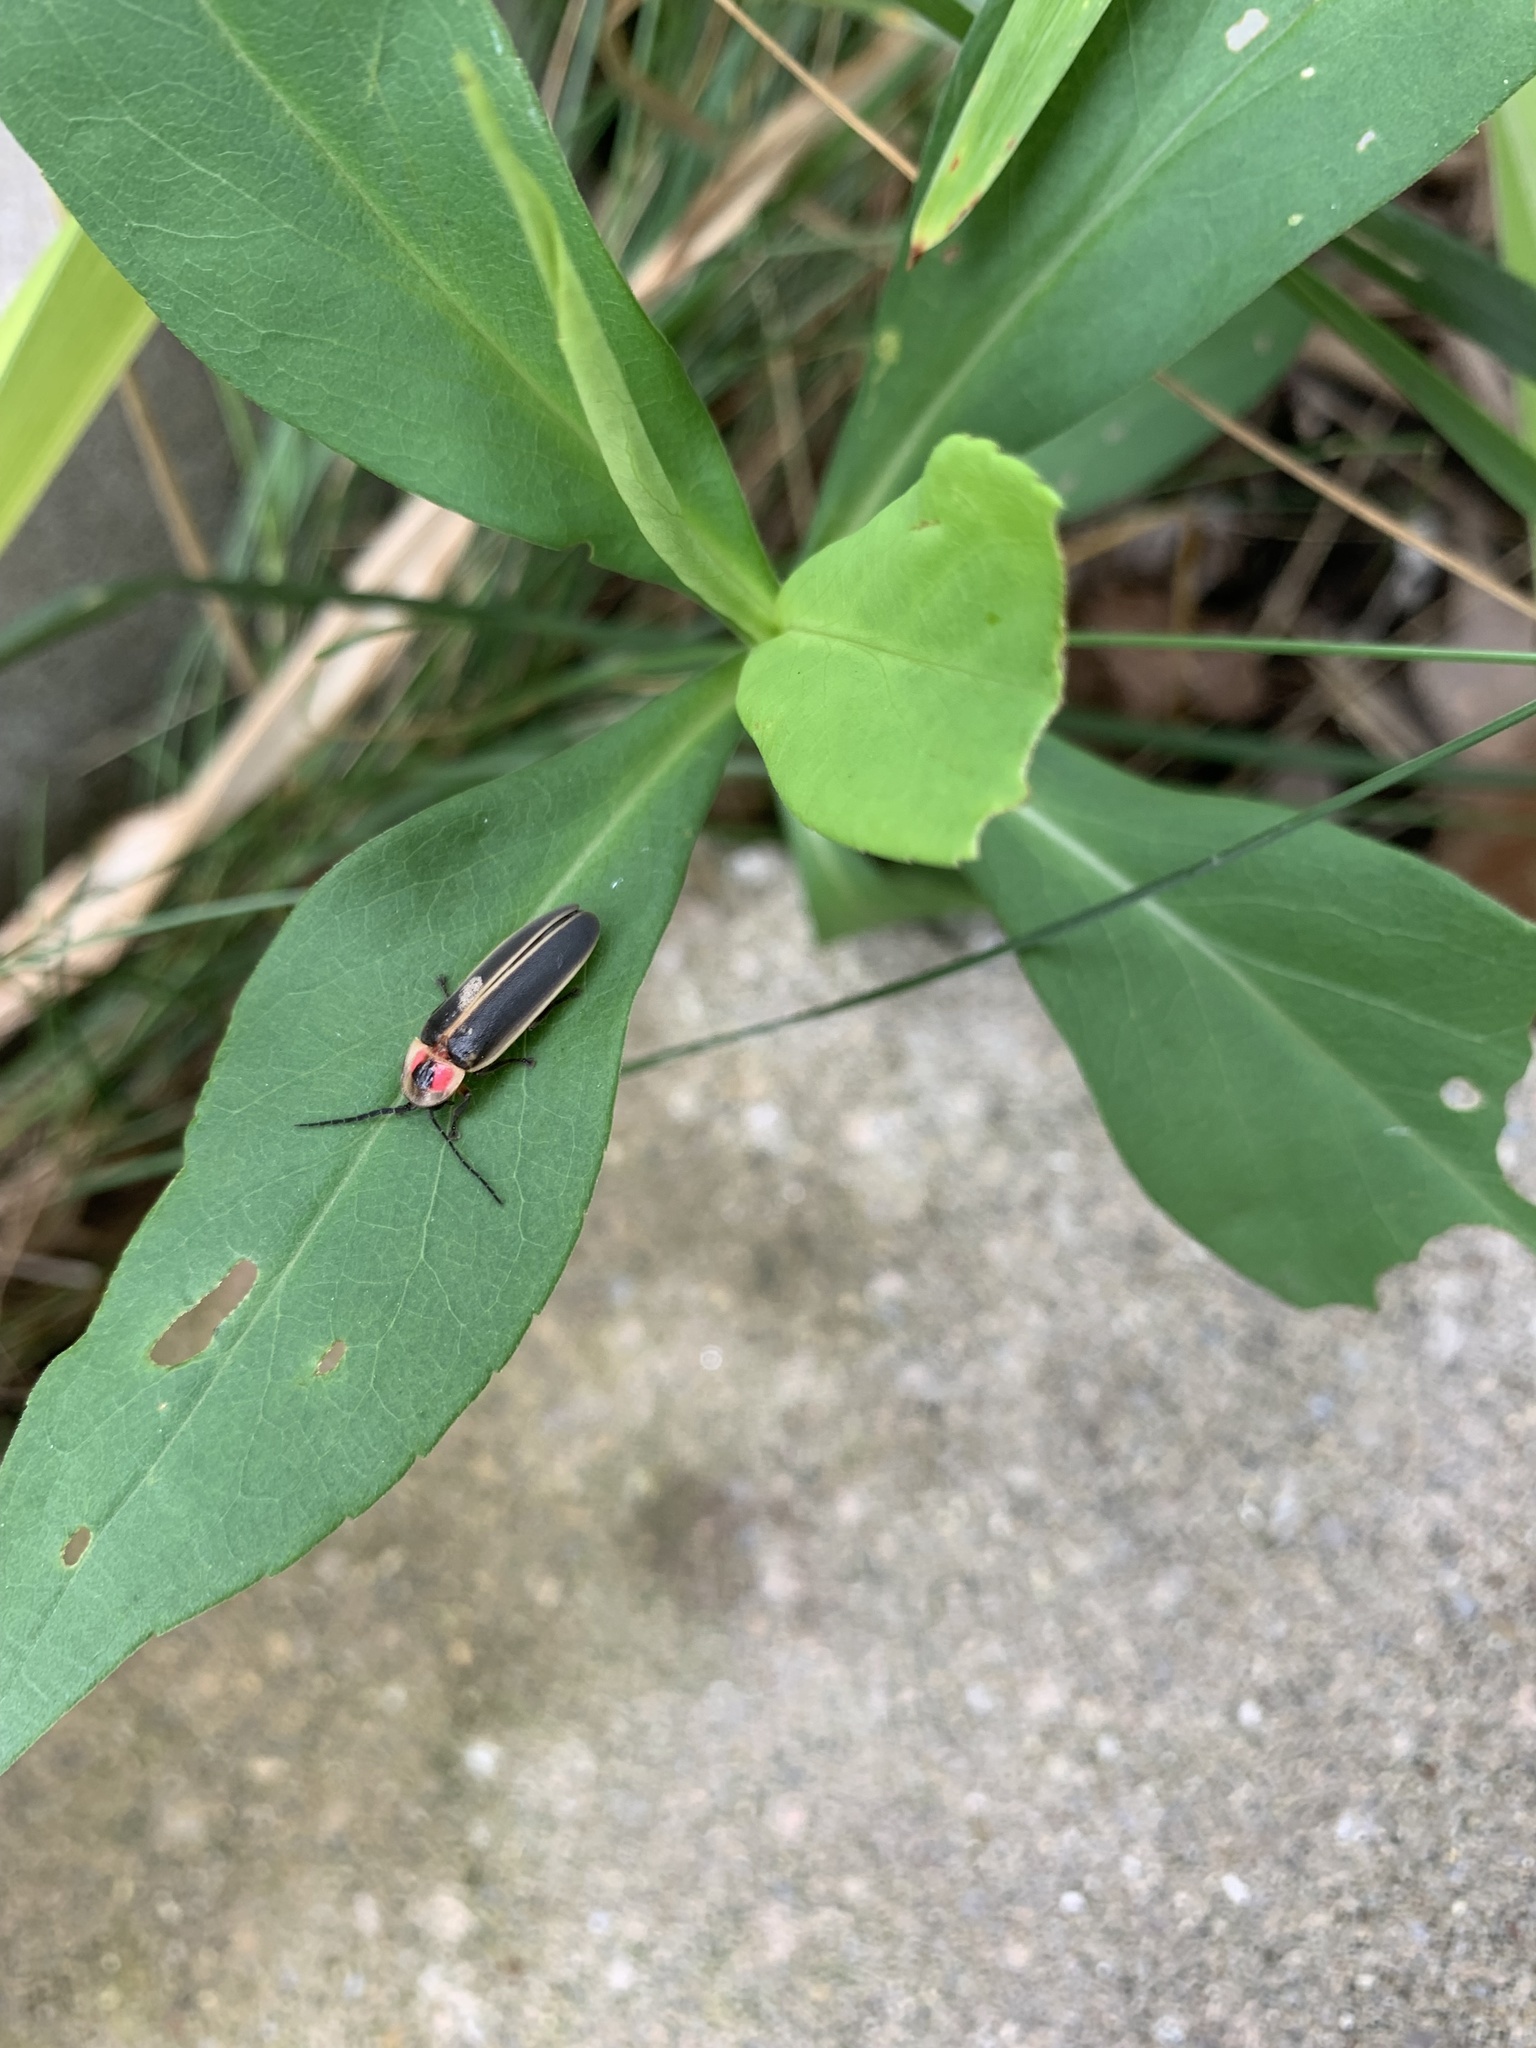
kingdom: Animalia
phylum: Arthropoda
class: Insecta
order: Coleoptera
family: Lampyridae
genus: Photinus
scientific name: Photinus pyralis
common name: Big dipper firefly
